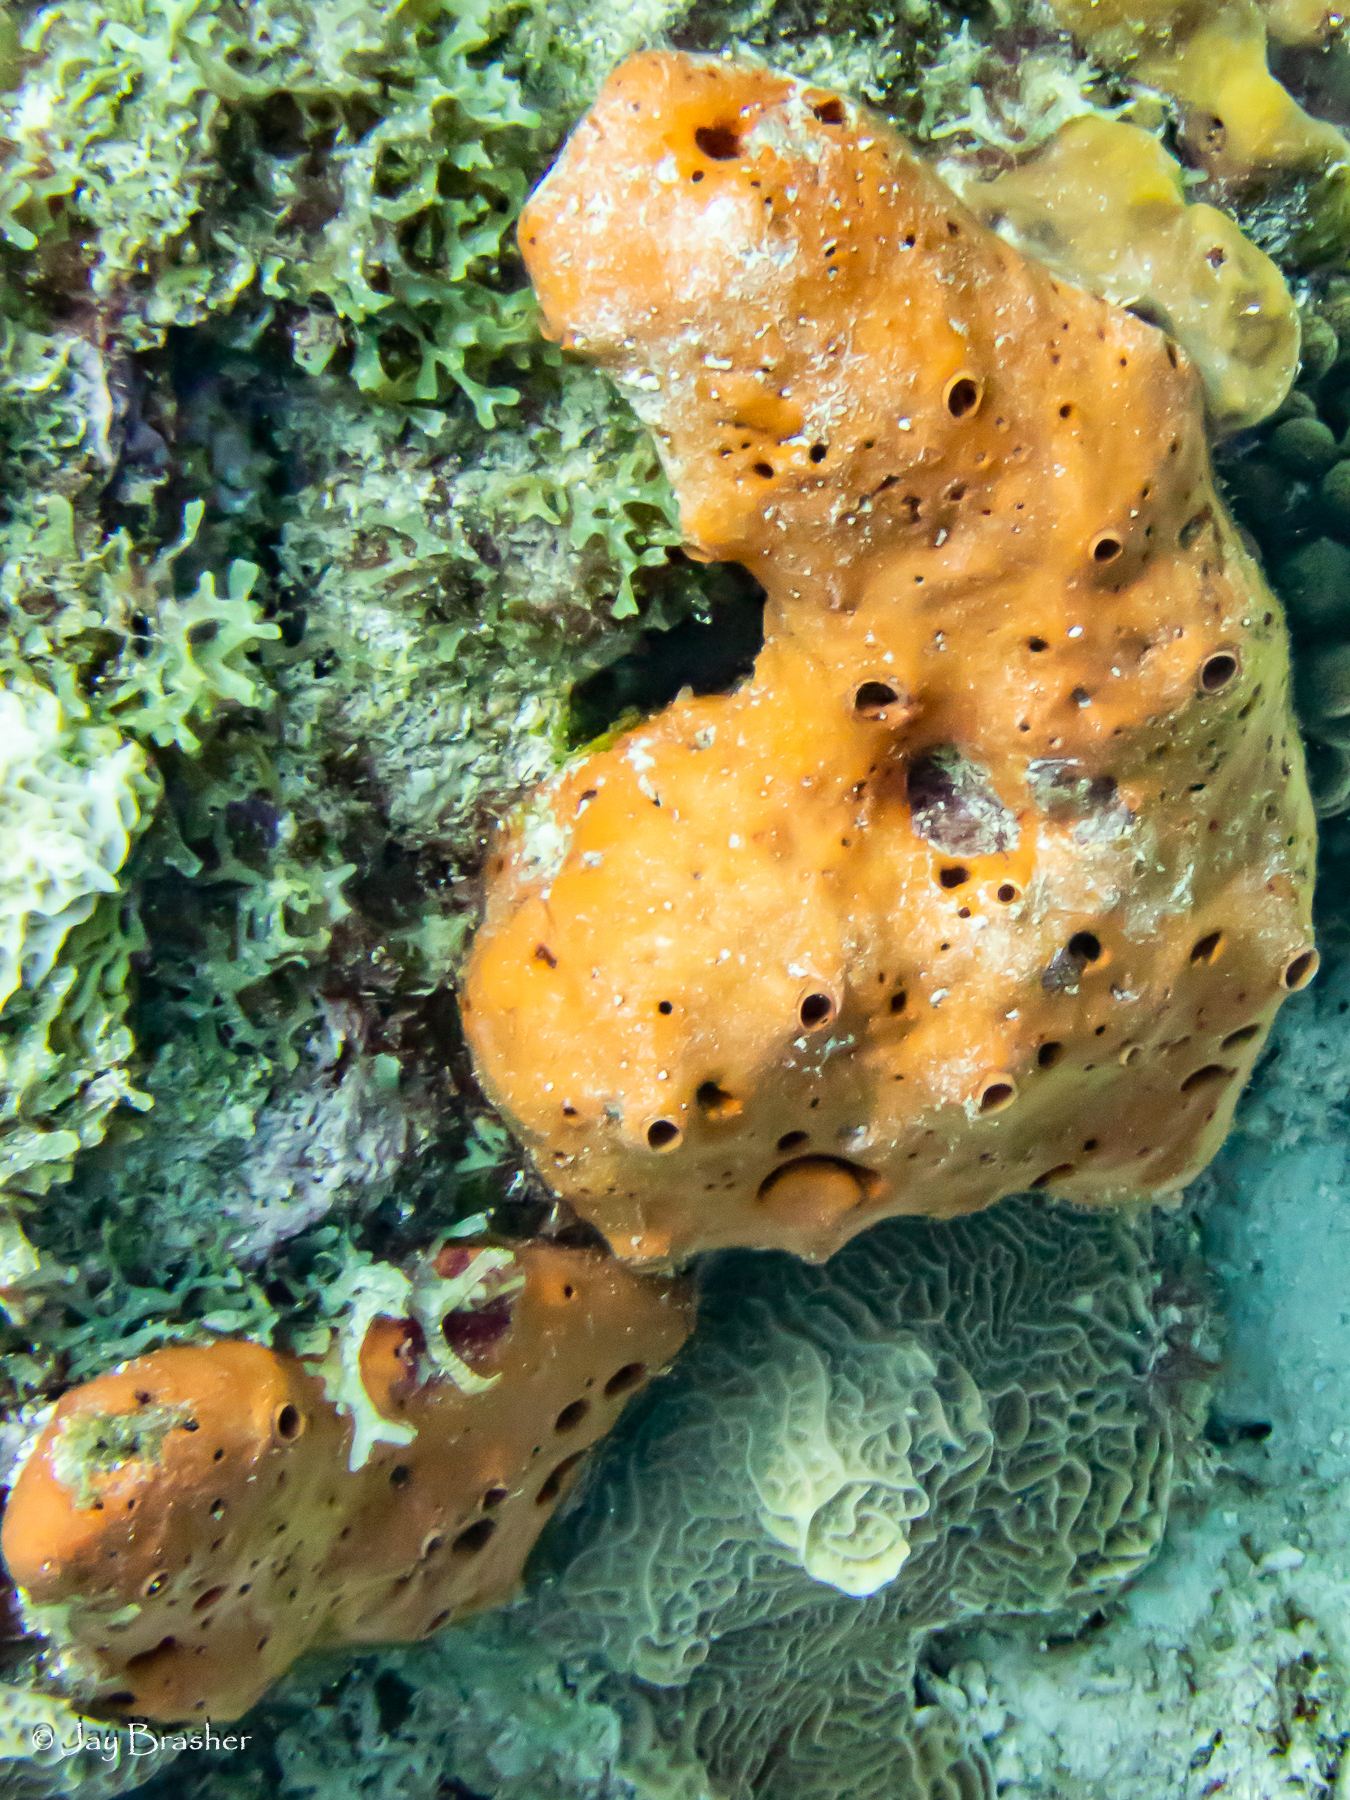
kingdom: Animalia
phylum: Porifera
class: Demospongiae
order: Agelasida
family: Agelasidae
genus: Agelas
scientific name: Agelas sventres
